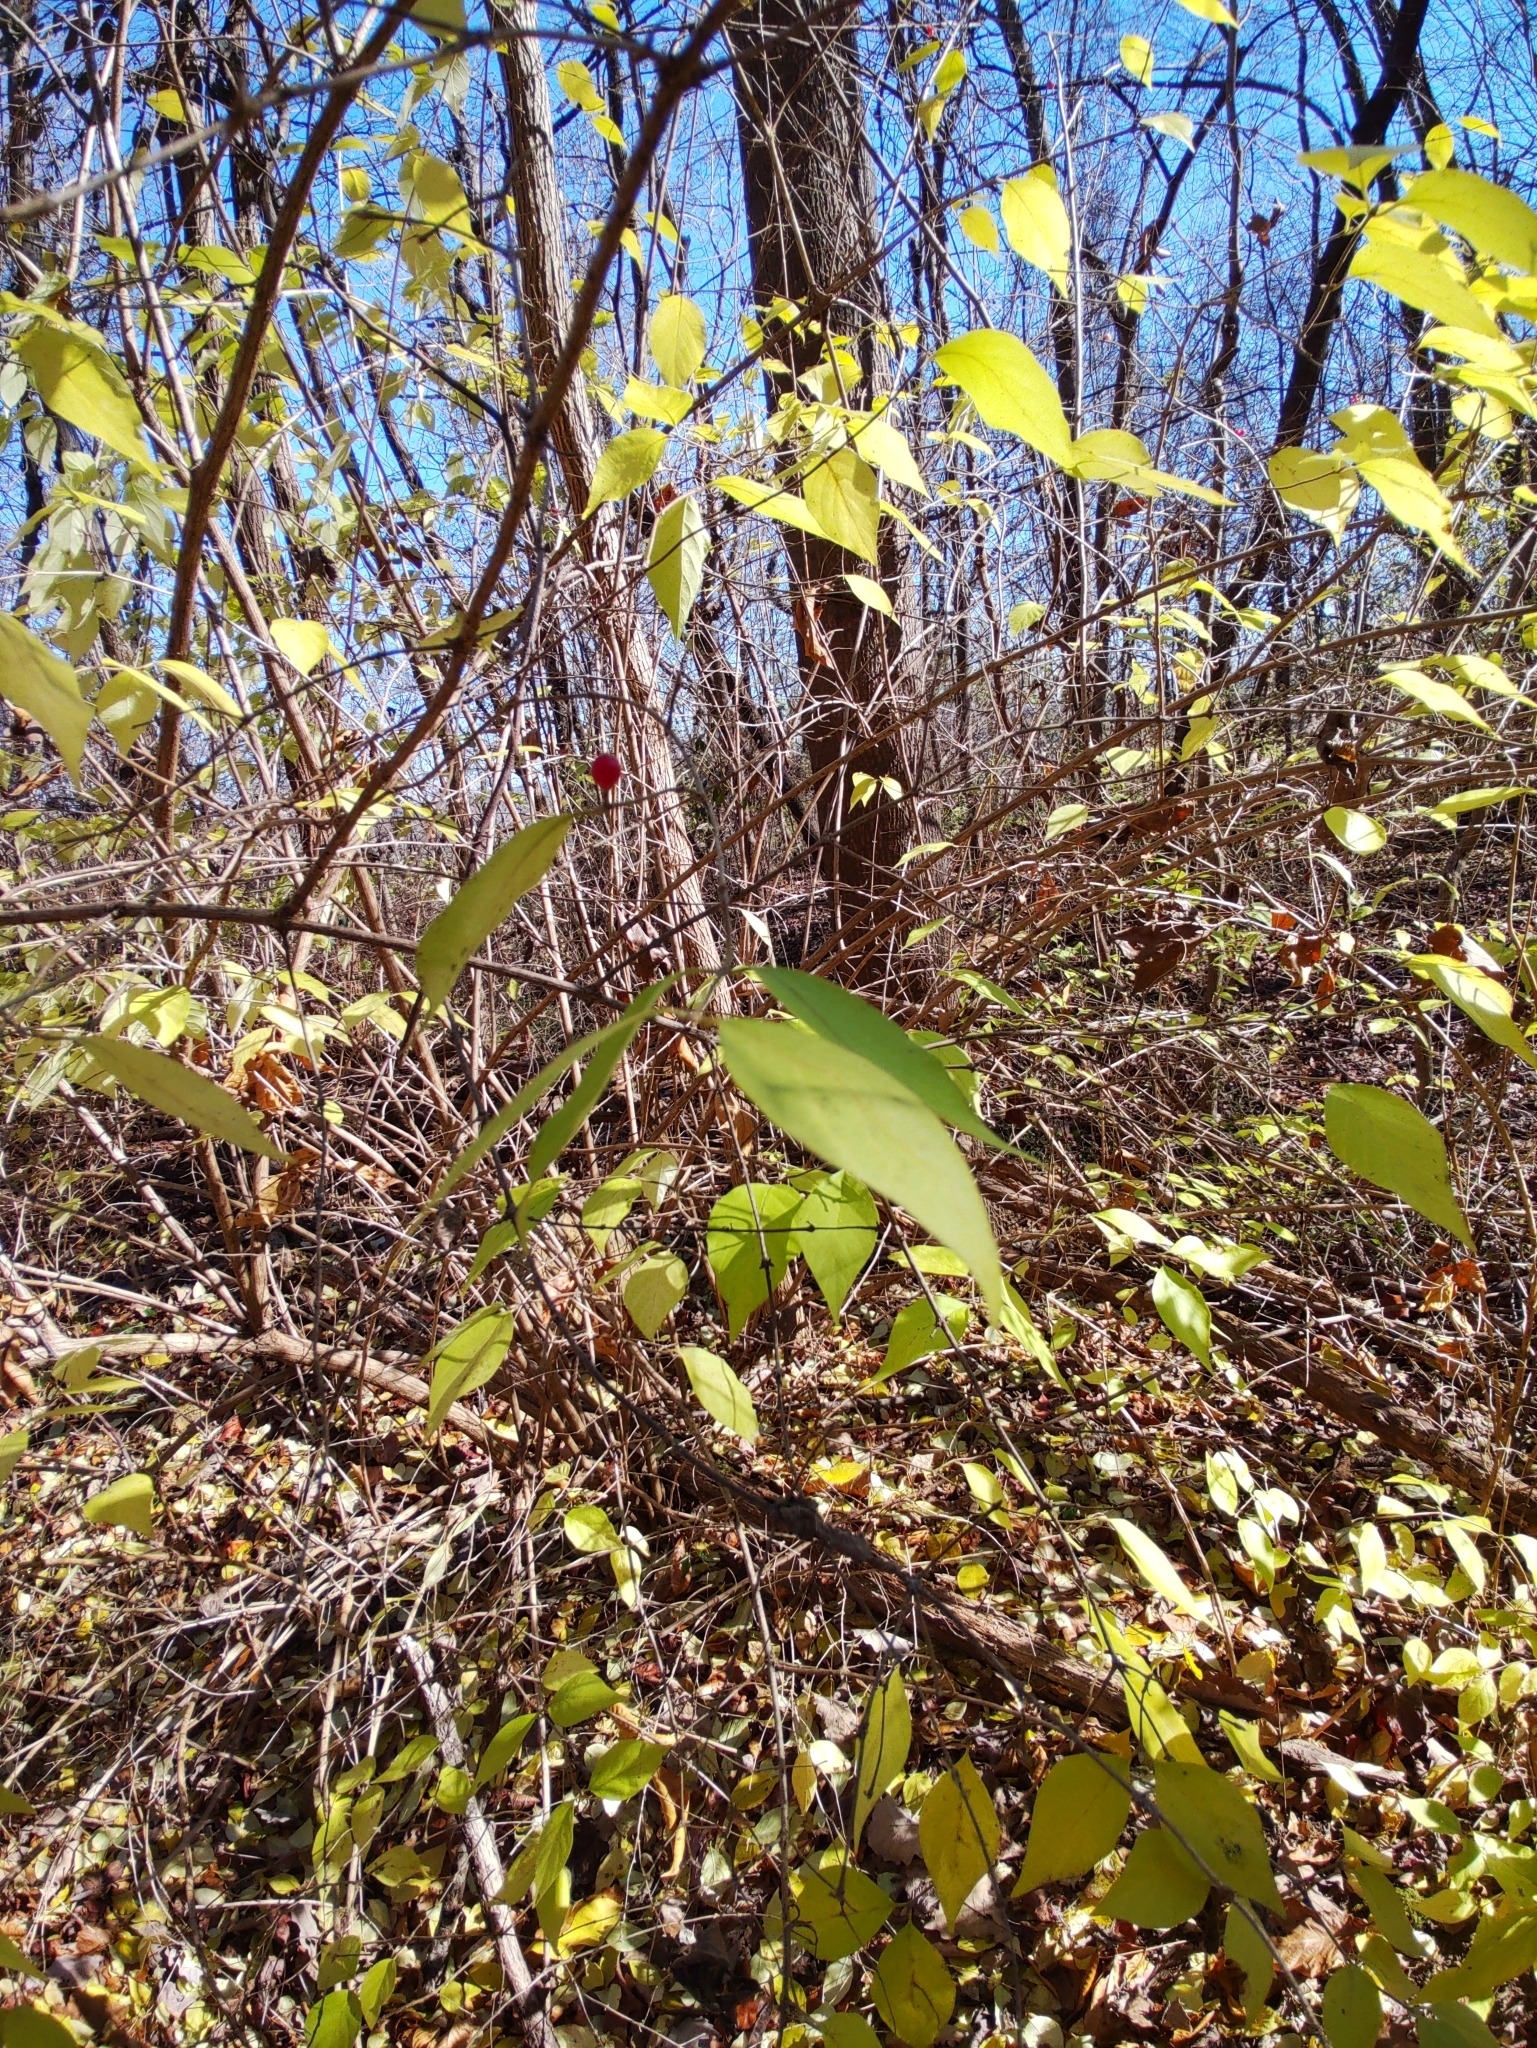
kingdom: Plantae
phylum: Tracheophyta
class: Magnoliopsida
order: Dipsacales
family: Caprifoliaceae
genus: Lonicera
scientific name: Lonicera maackii
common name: Amur honeysuckle
